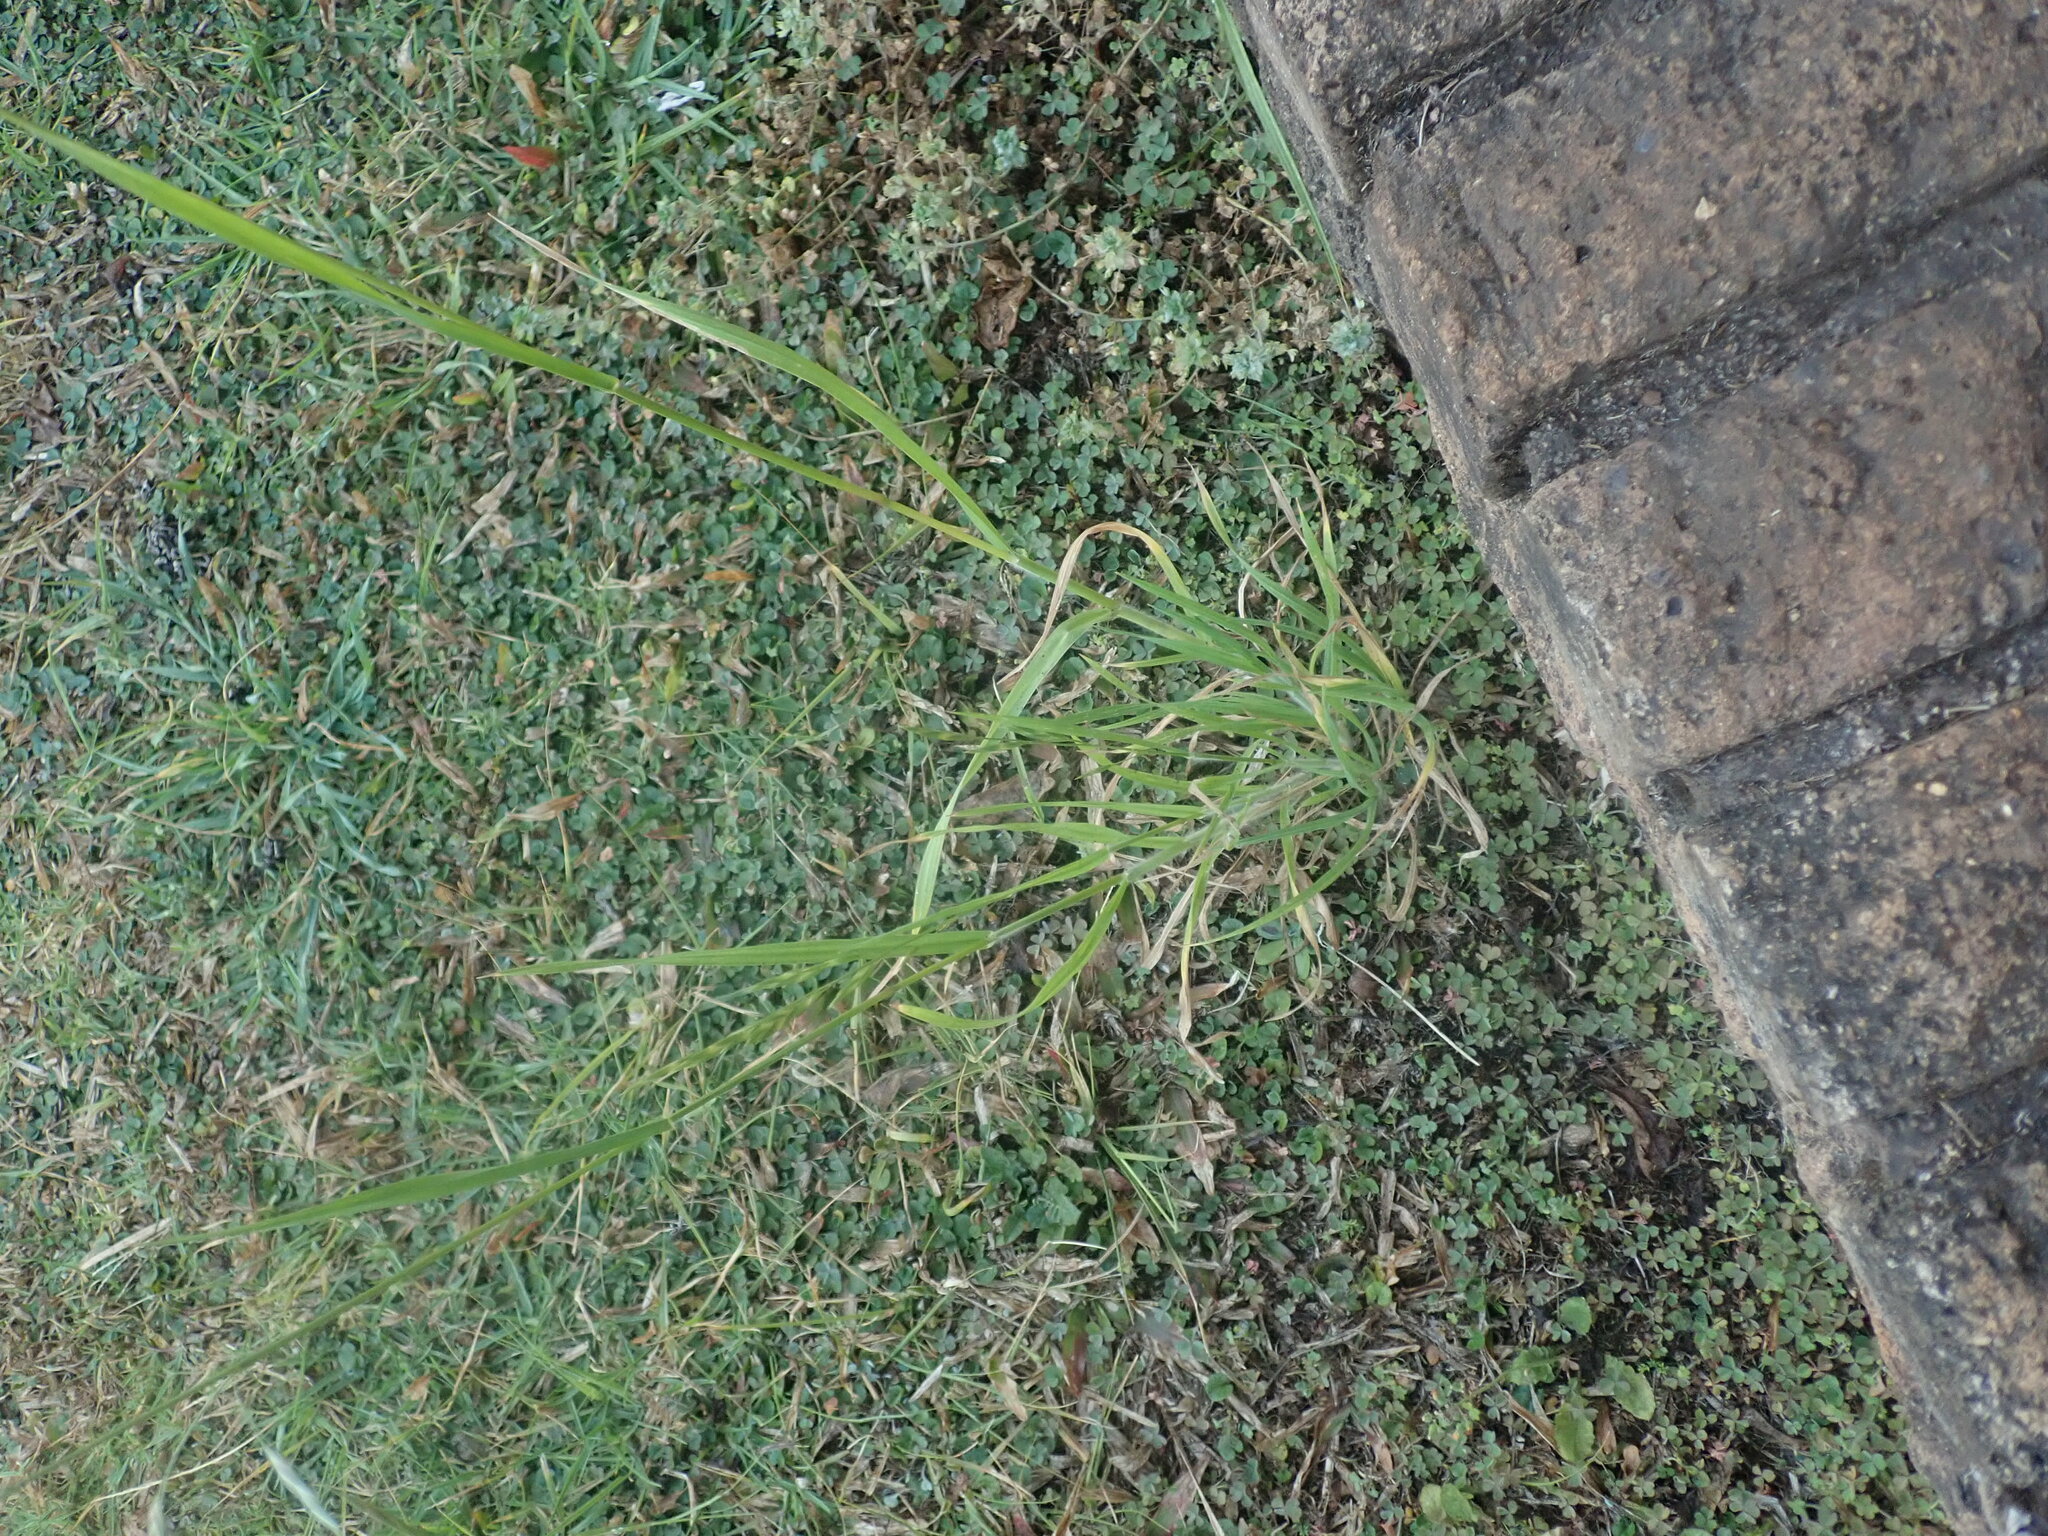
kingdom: Plantae
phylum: Tracheophyta
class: Liliopsida
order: Poales
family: Poaceae
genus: Bromus
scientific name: Bromus catharticus
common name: Rescuegrass
